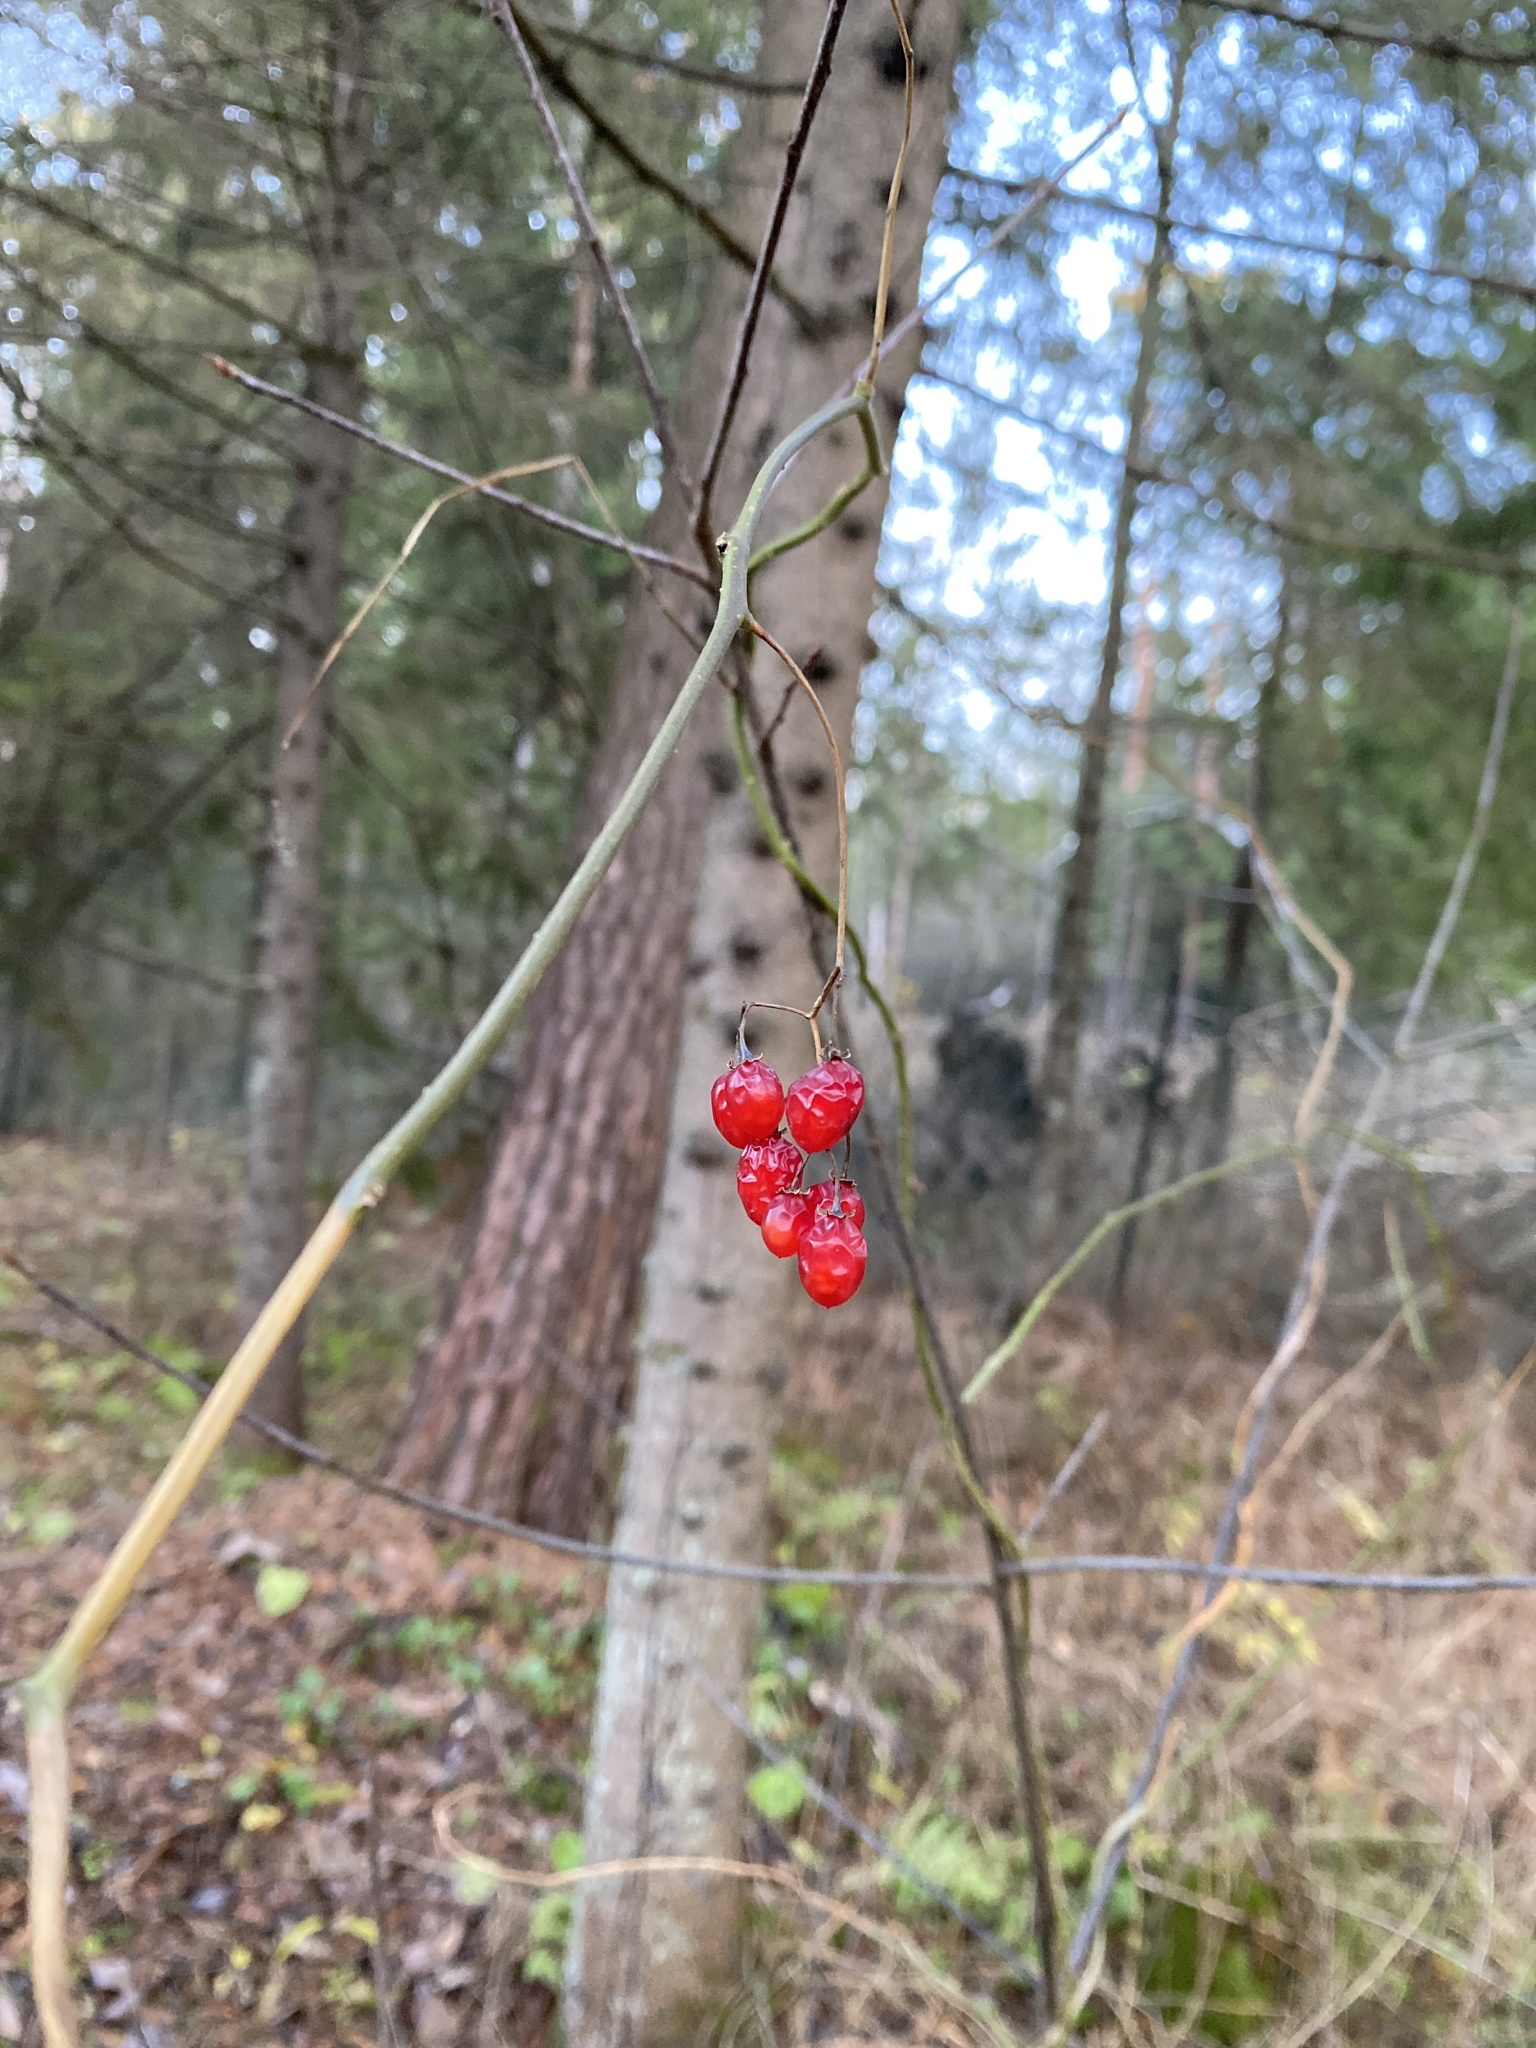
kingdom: Plantae
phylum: Tracheophyta
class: Magnoliopsida
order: Dipsacales
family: Viburnaceae
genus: Viburnum
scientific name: Viburnum opulus
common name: Guelder-rose
